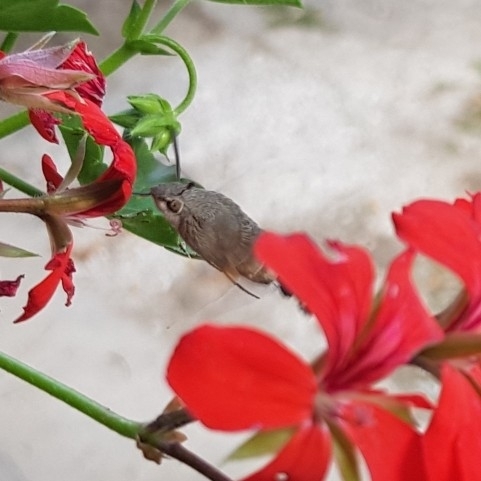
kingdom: Animalia
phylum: Arthropoda
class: Insecta
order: Lepidoptera
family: Sphingidae
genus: Macroglossum
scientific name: Macroglossum stellatarum
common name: Humming-bird hawk-moth
